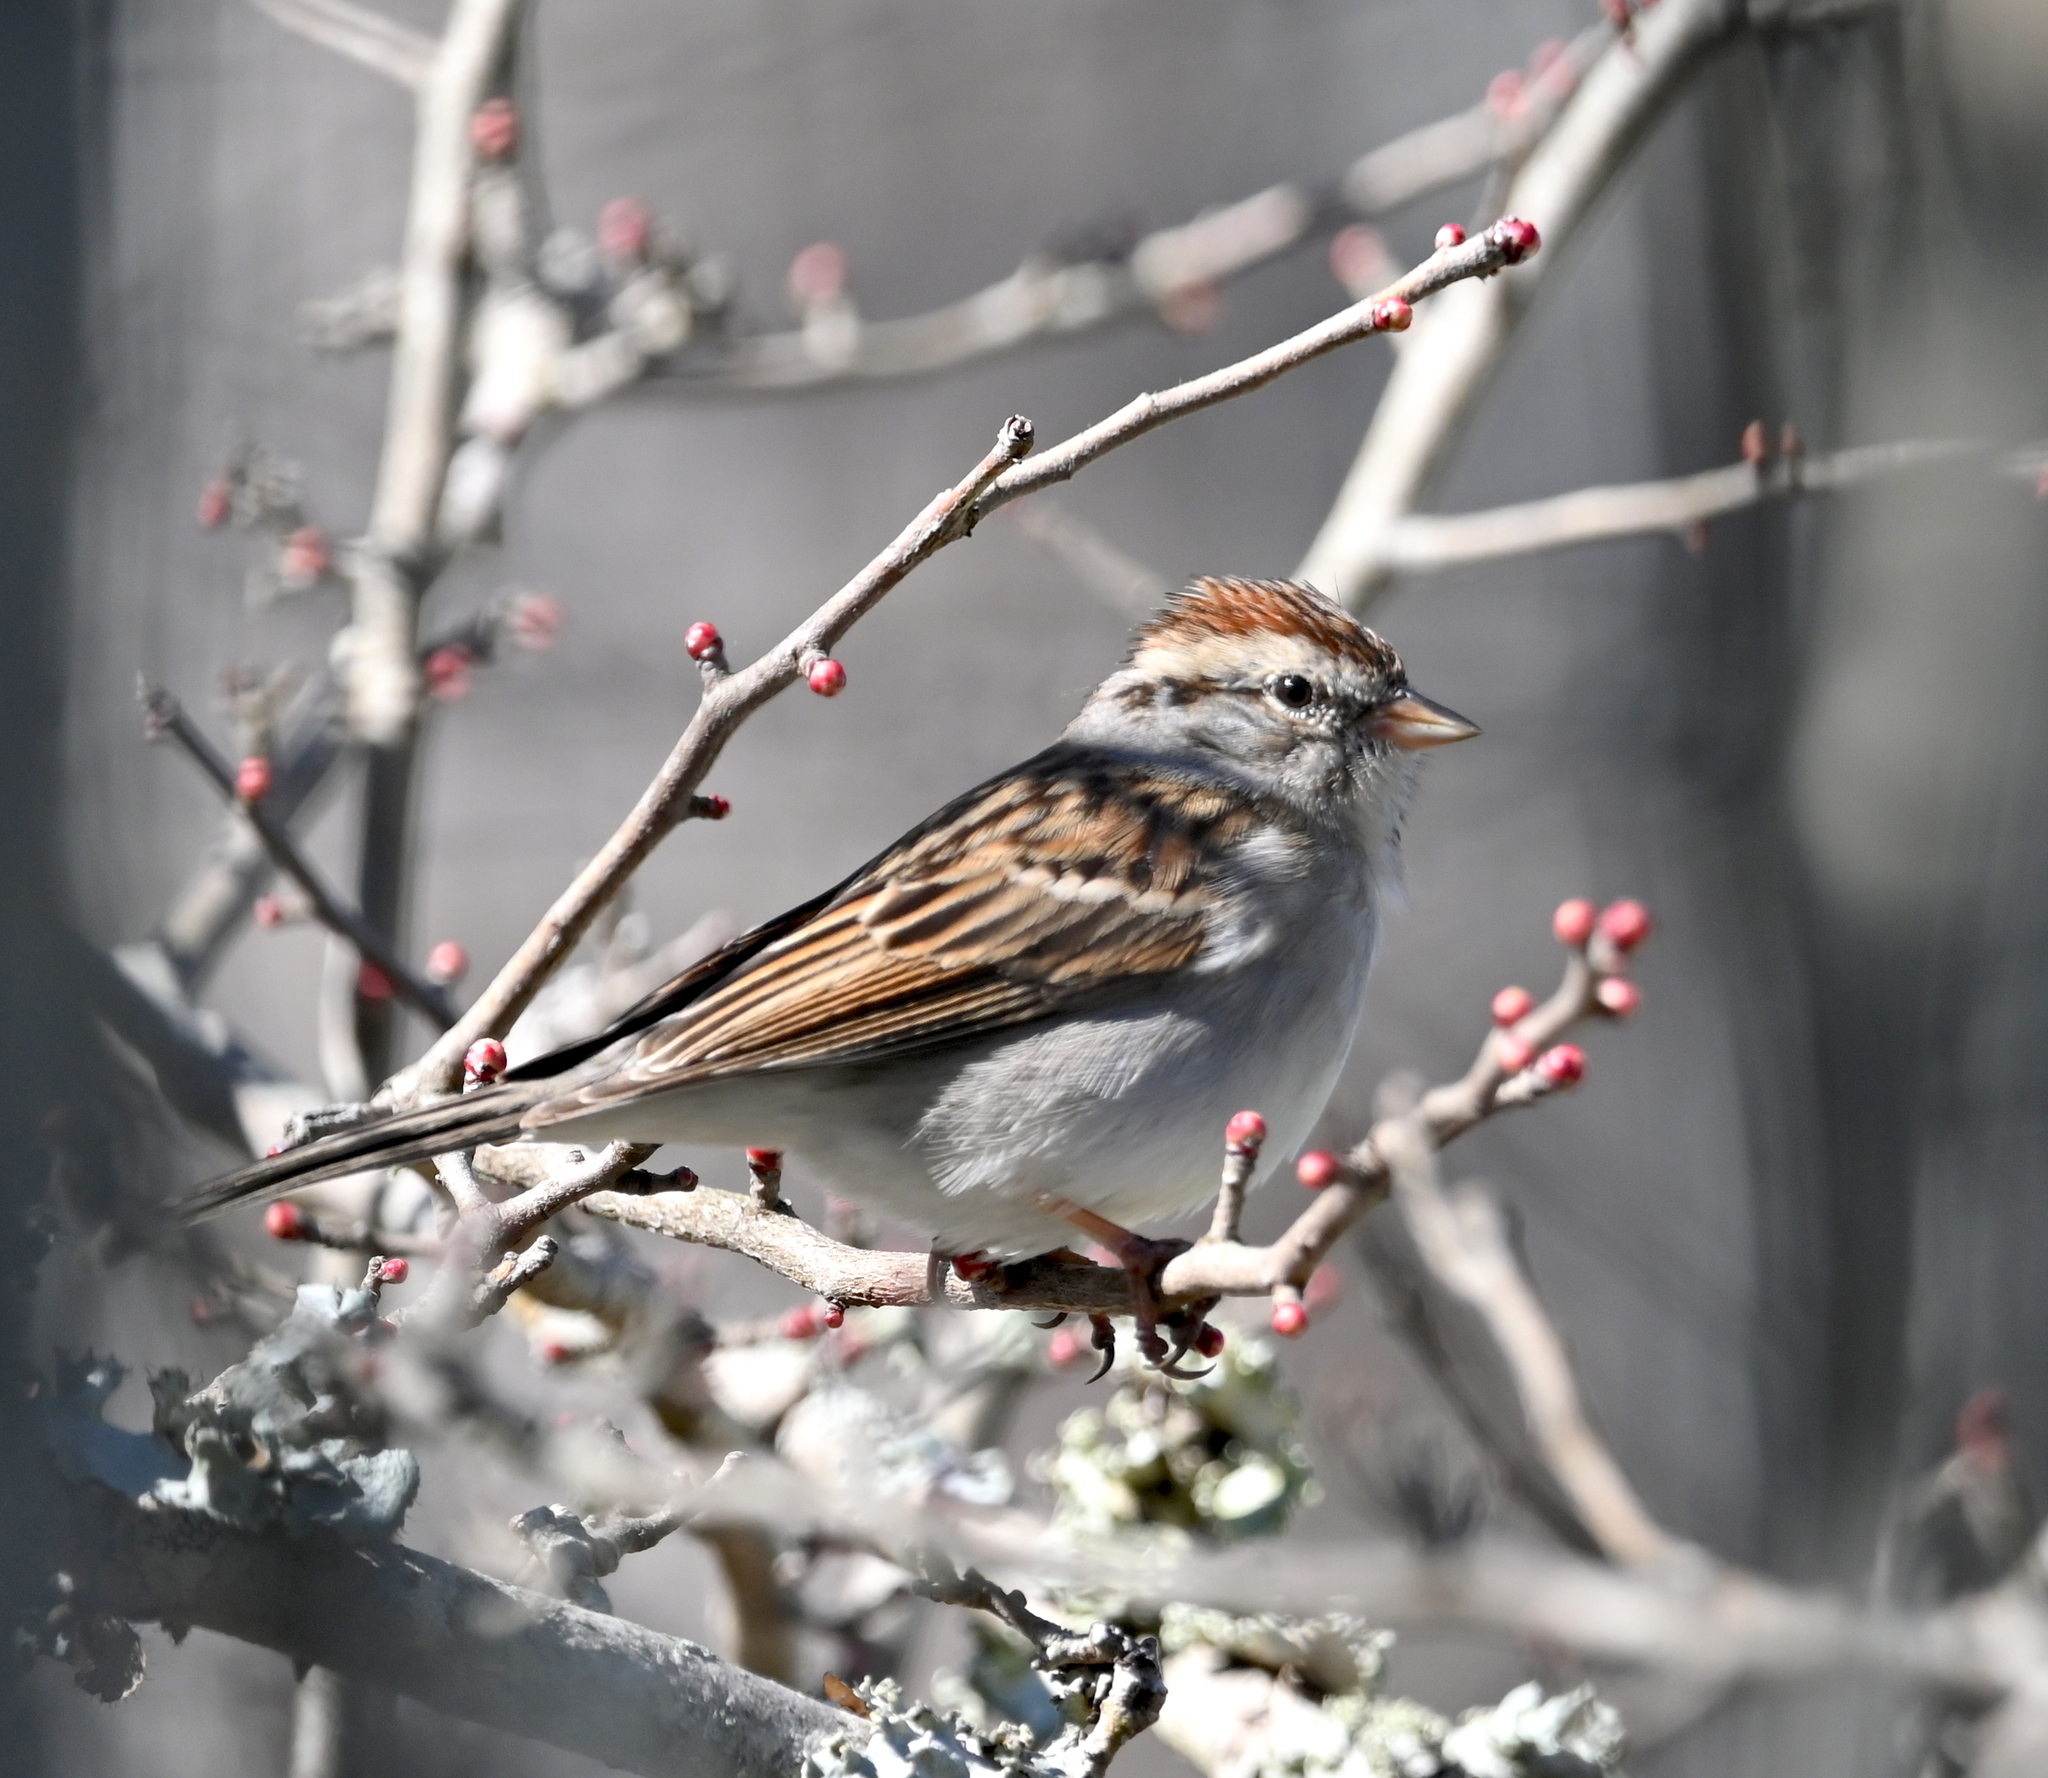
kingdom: Animalia
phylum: Chordata
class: Aves
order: Passeriformes
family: Passerellidae
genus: Spizella
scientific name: Spizella passerina
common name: Chipping sparrow
